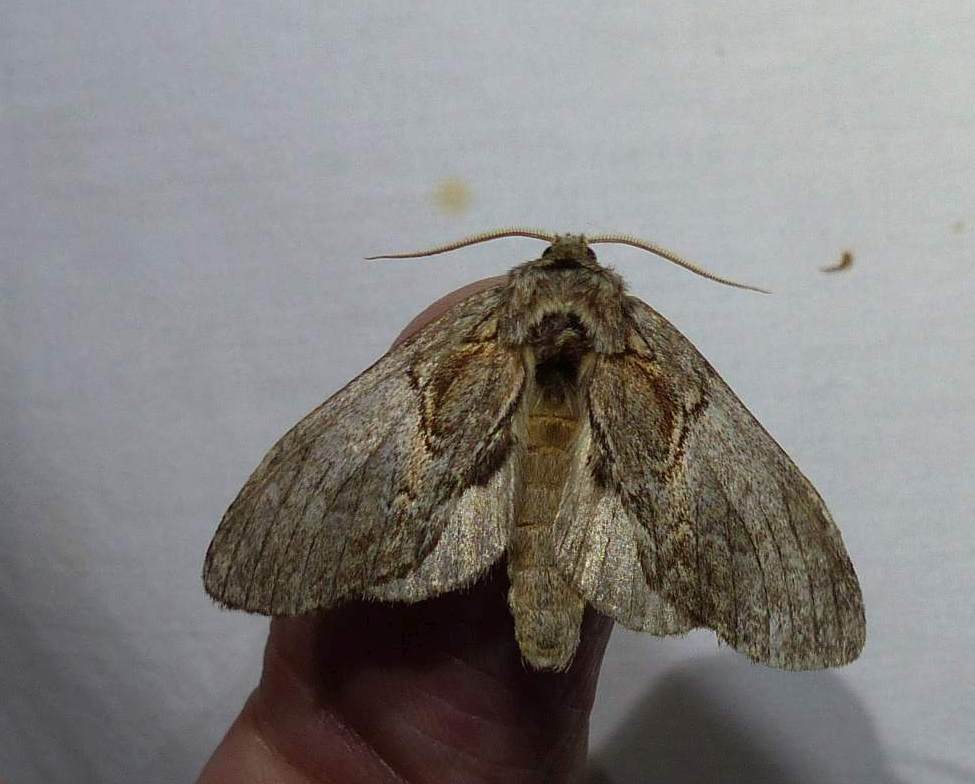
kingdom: Animalia
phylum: Arthropoda
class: Insecta
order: Lepidoptera
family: Notodontidae
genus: Peridea
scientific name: Peridea basitriens
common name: Oval-based prominent
